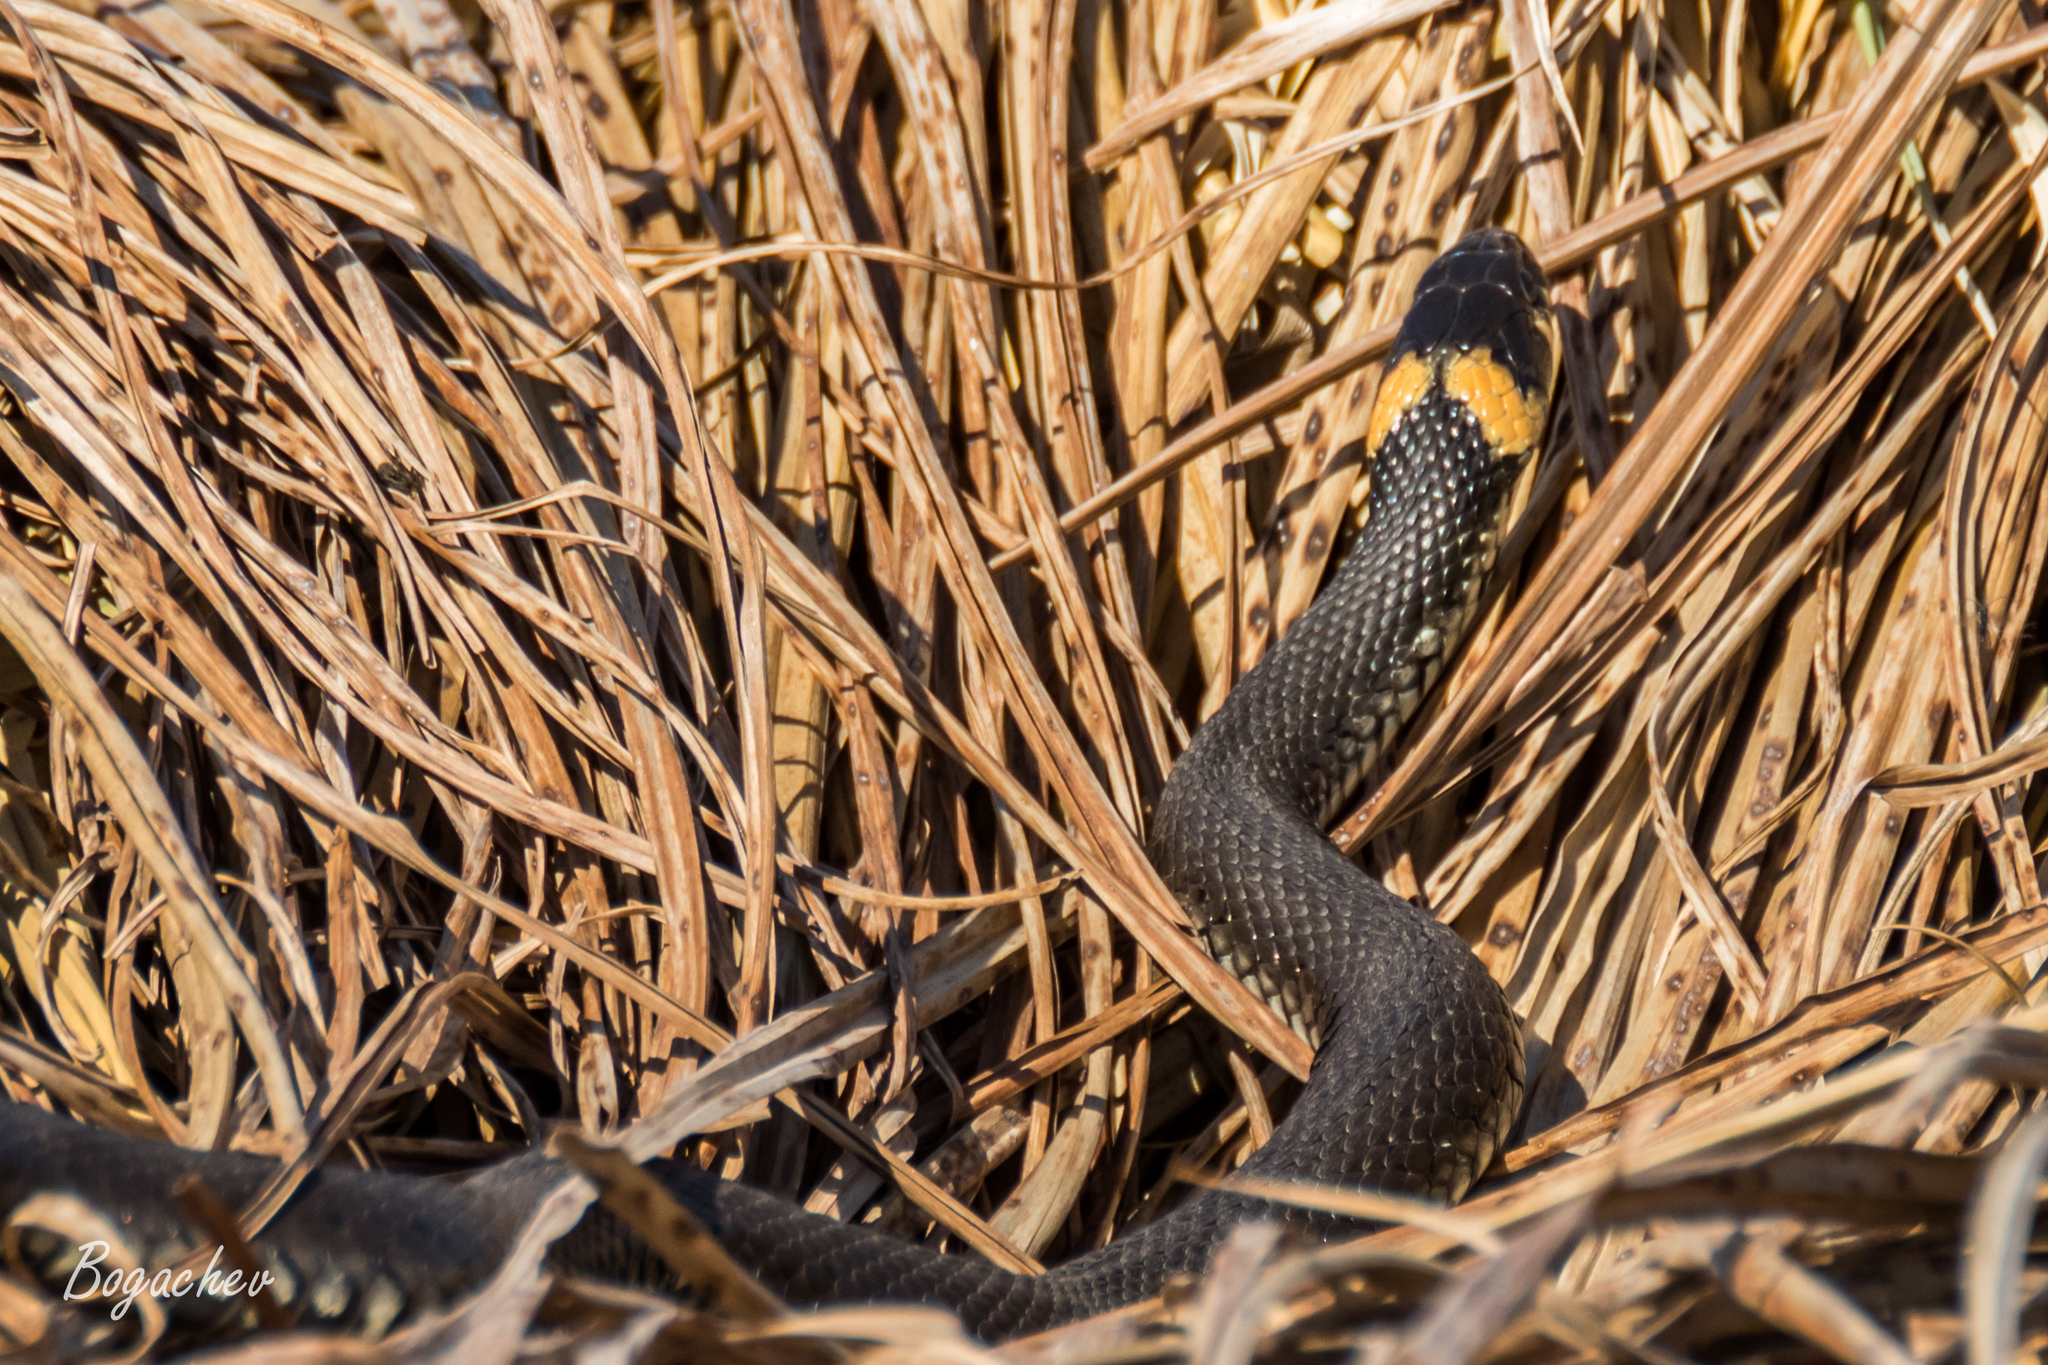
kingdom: Animalia
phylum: Chordata
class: Squamata
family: Colubridae
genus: Natrix
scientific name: Natrix natrix
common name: Grass snake
